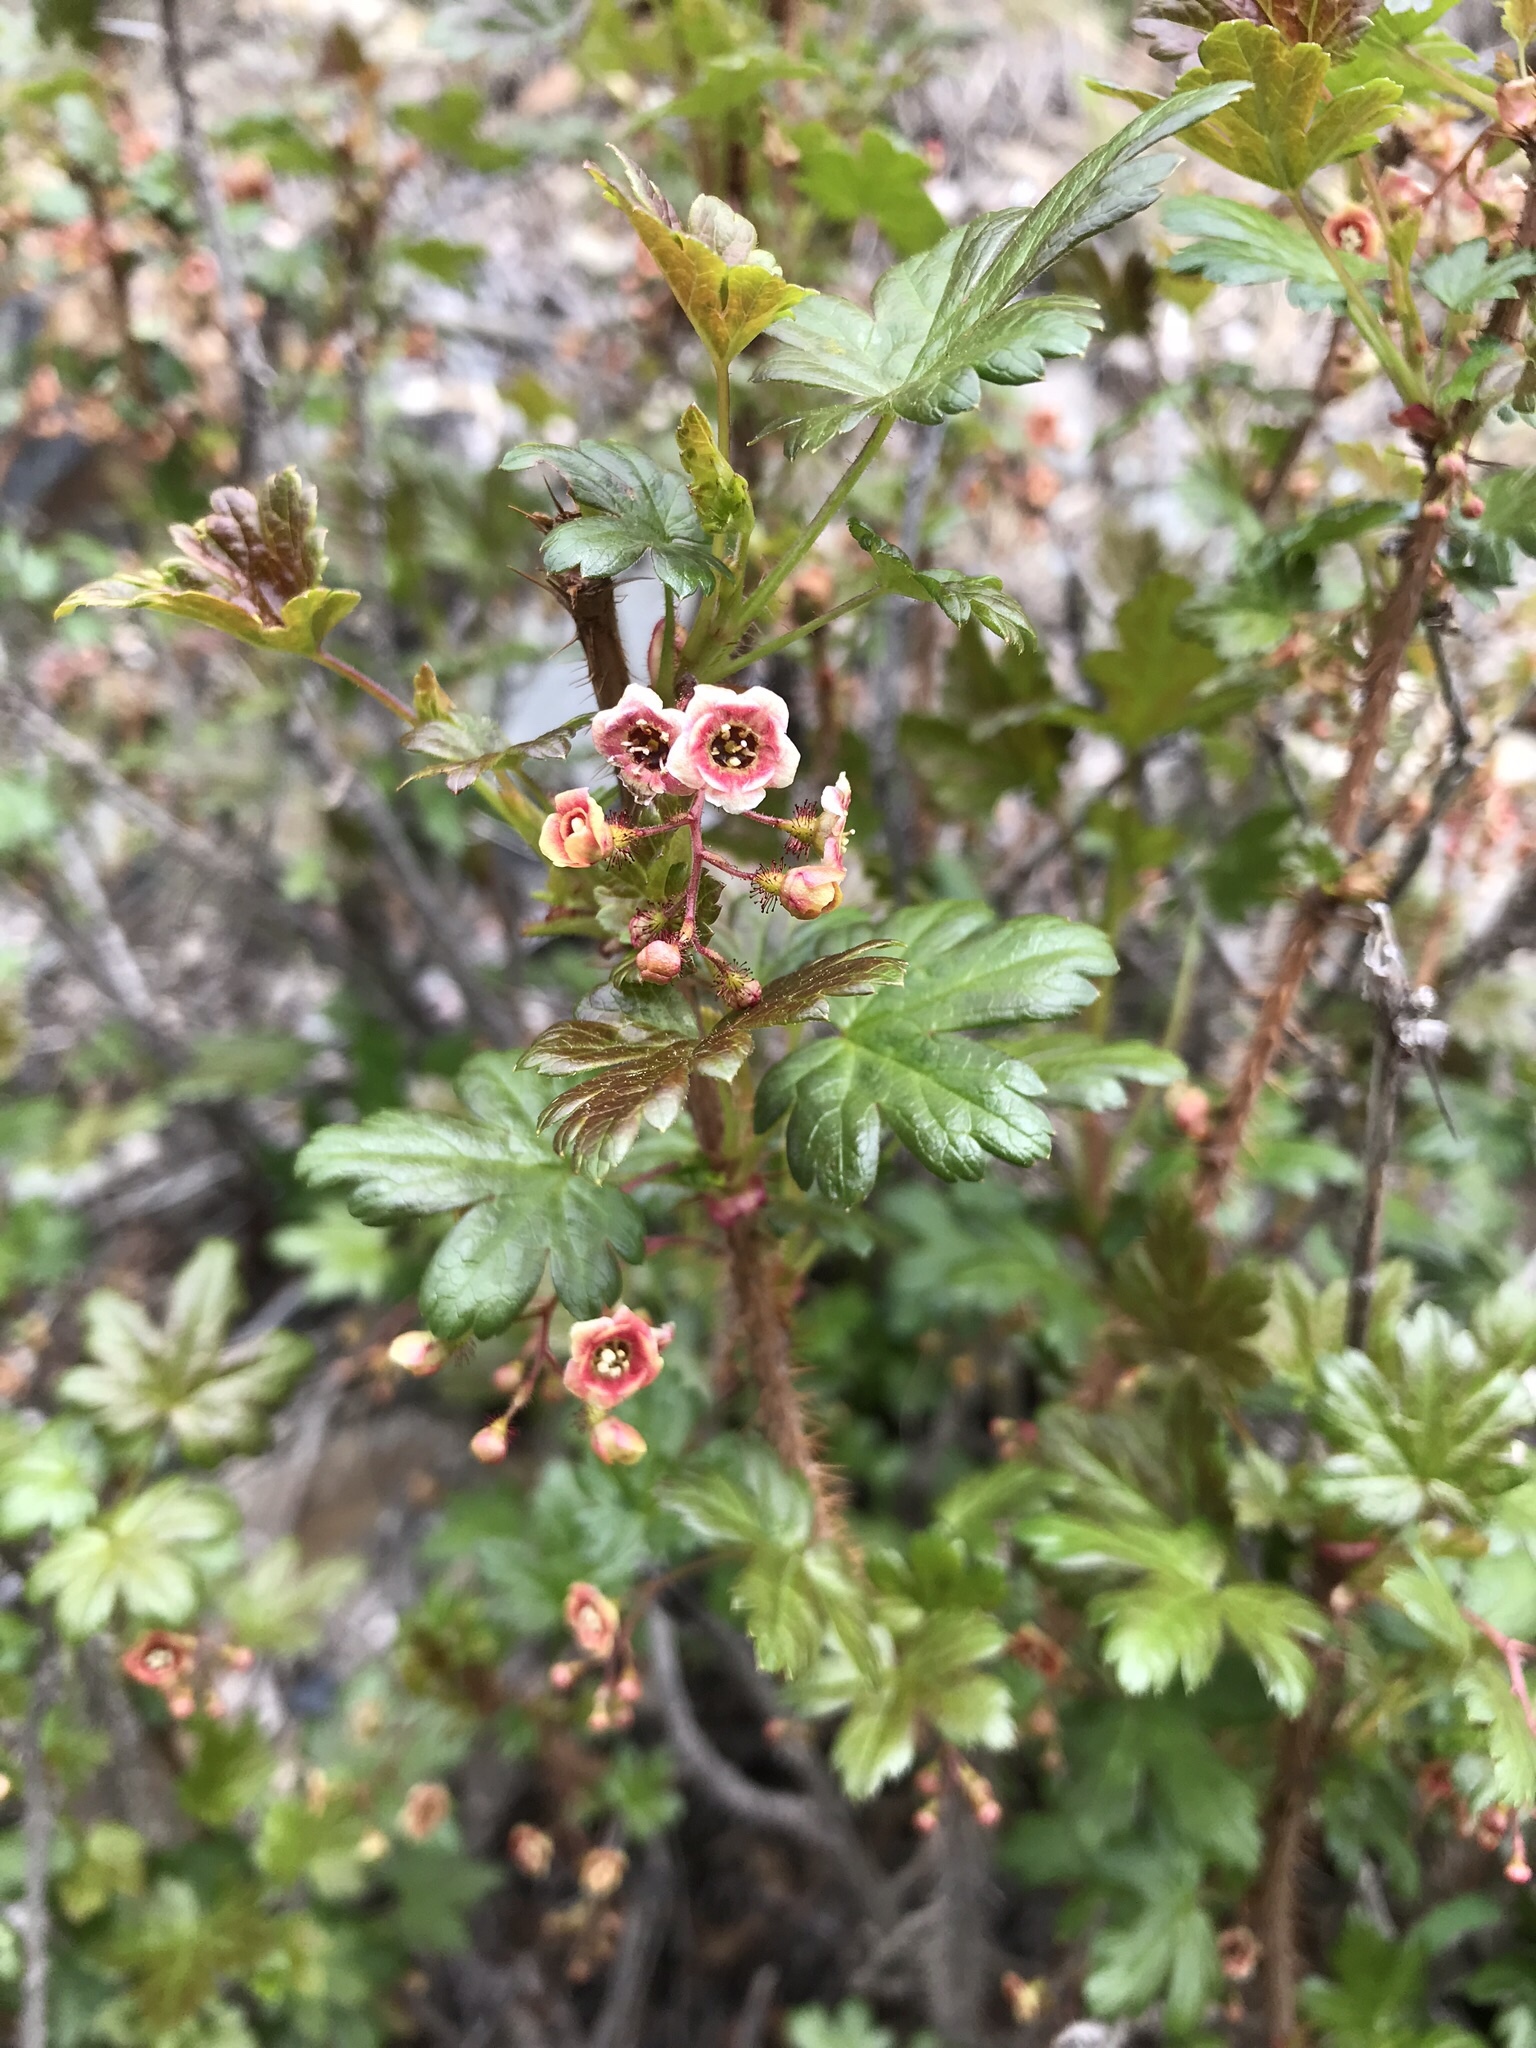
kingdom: Plantae
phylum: Tracheophyta
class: Magnoliopsida
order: Saxifragales
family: Grossulariaceae
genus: Ribes
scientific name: Ribes lacustre
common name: Black gooseberry
